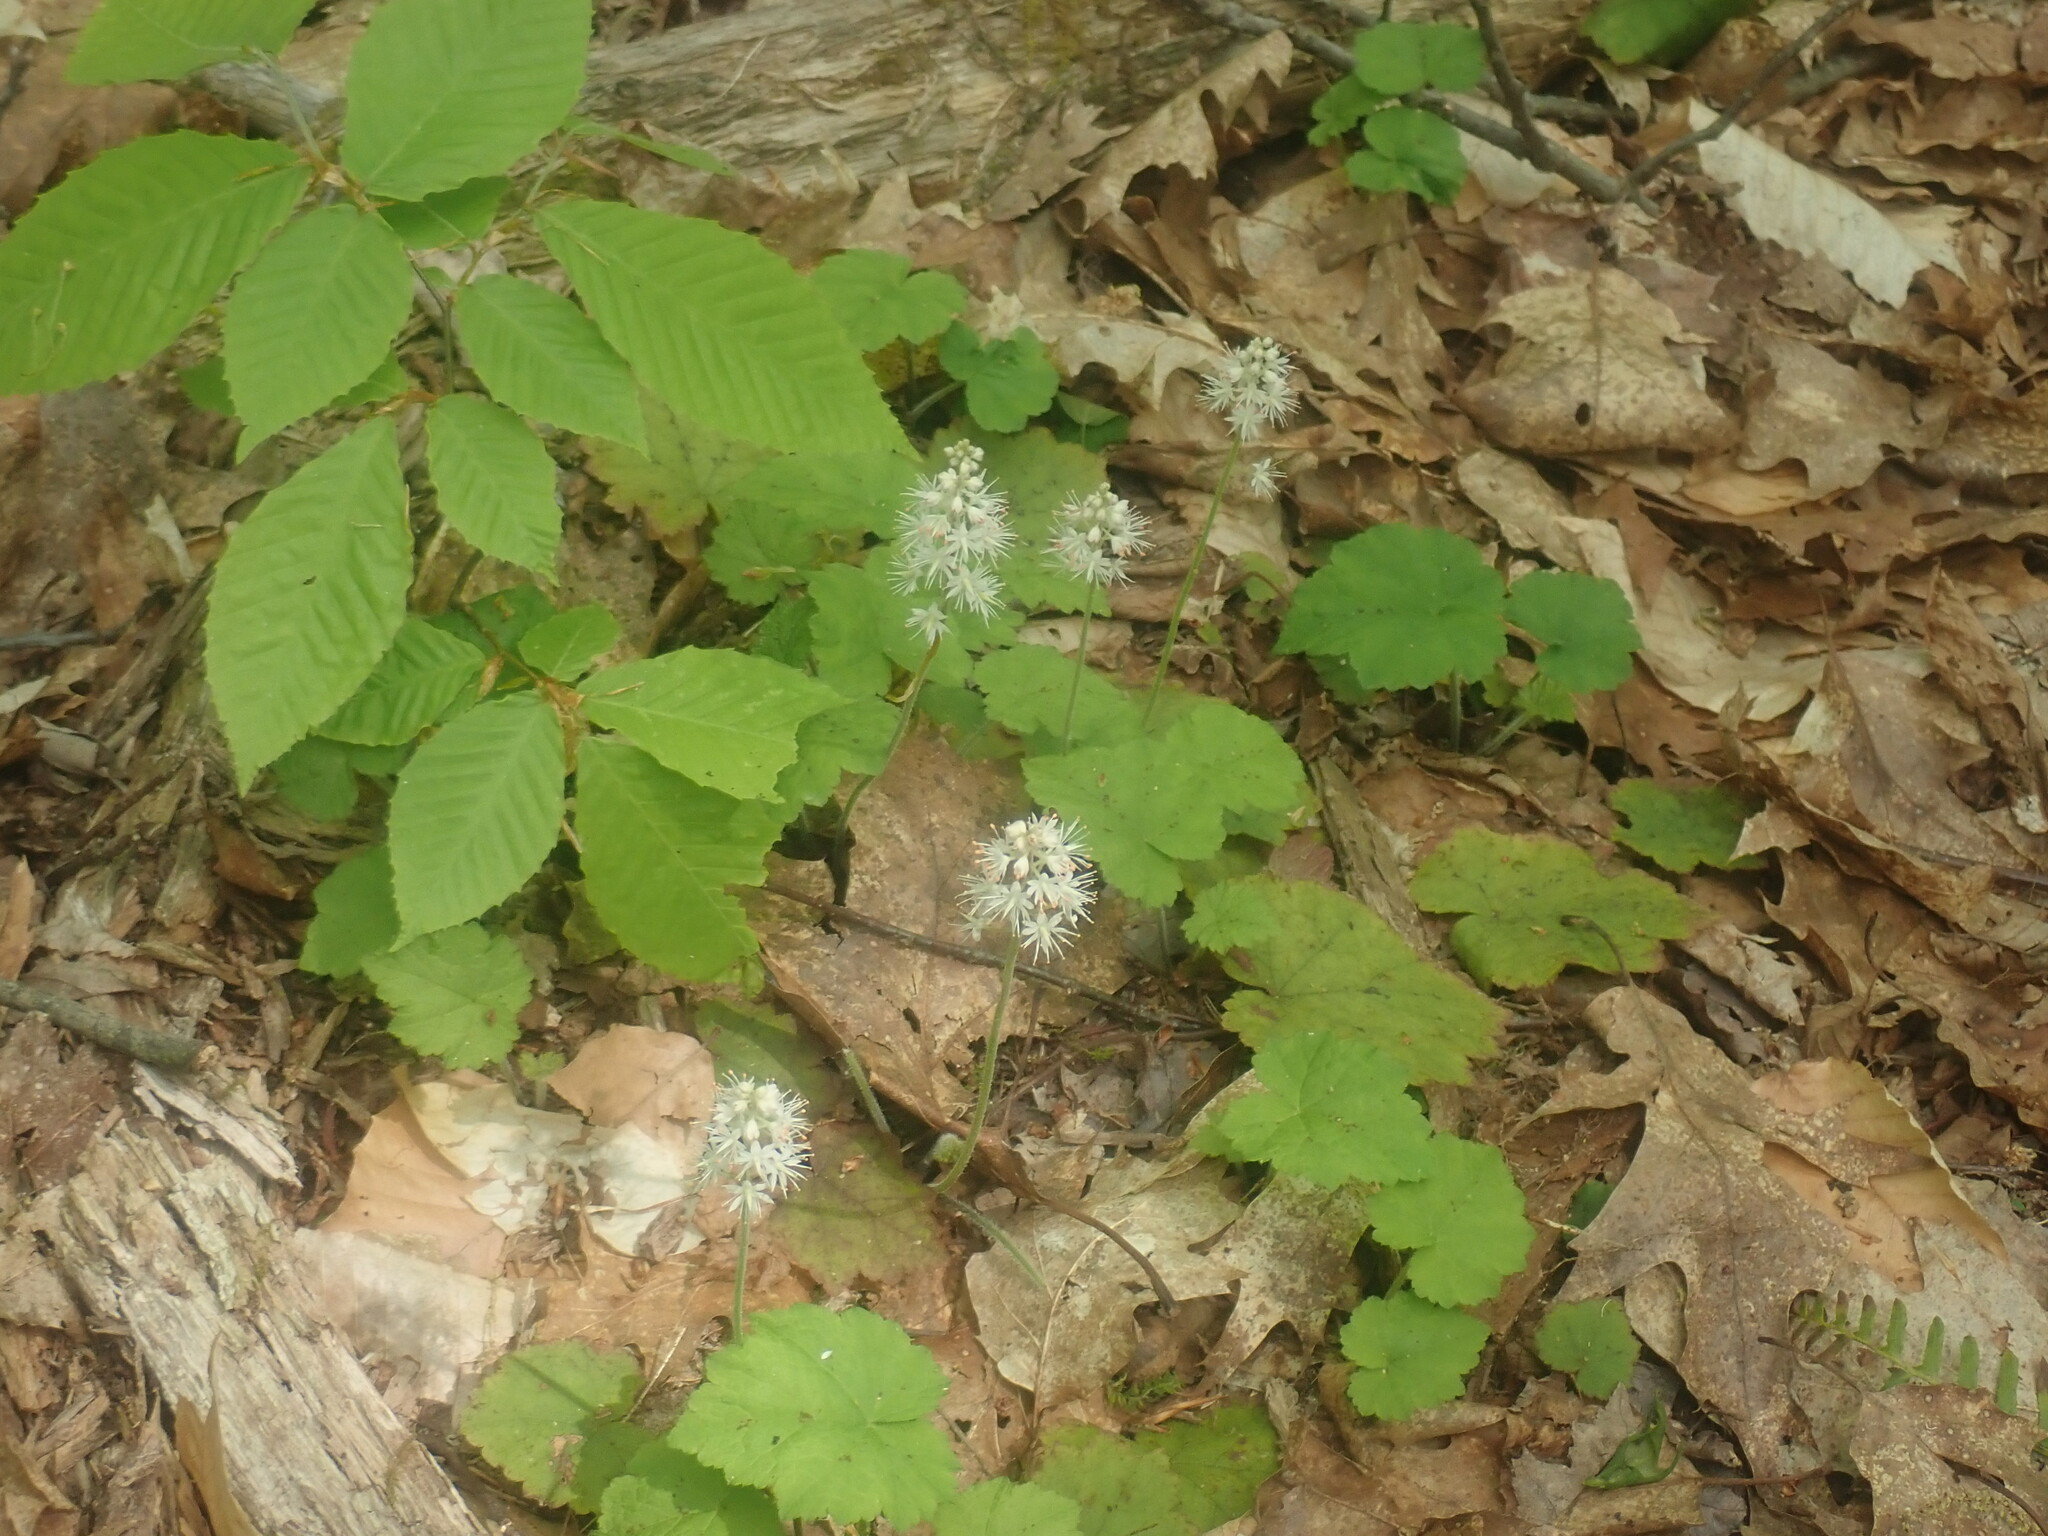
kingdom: Plantae
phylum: Tracheophyta
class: Magnoliopsida
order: Saxifragales
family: Saxifragaceae
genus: Tiarella
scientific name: Tiarella stolonifera
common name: Stoloniferous foamflower
